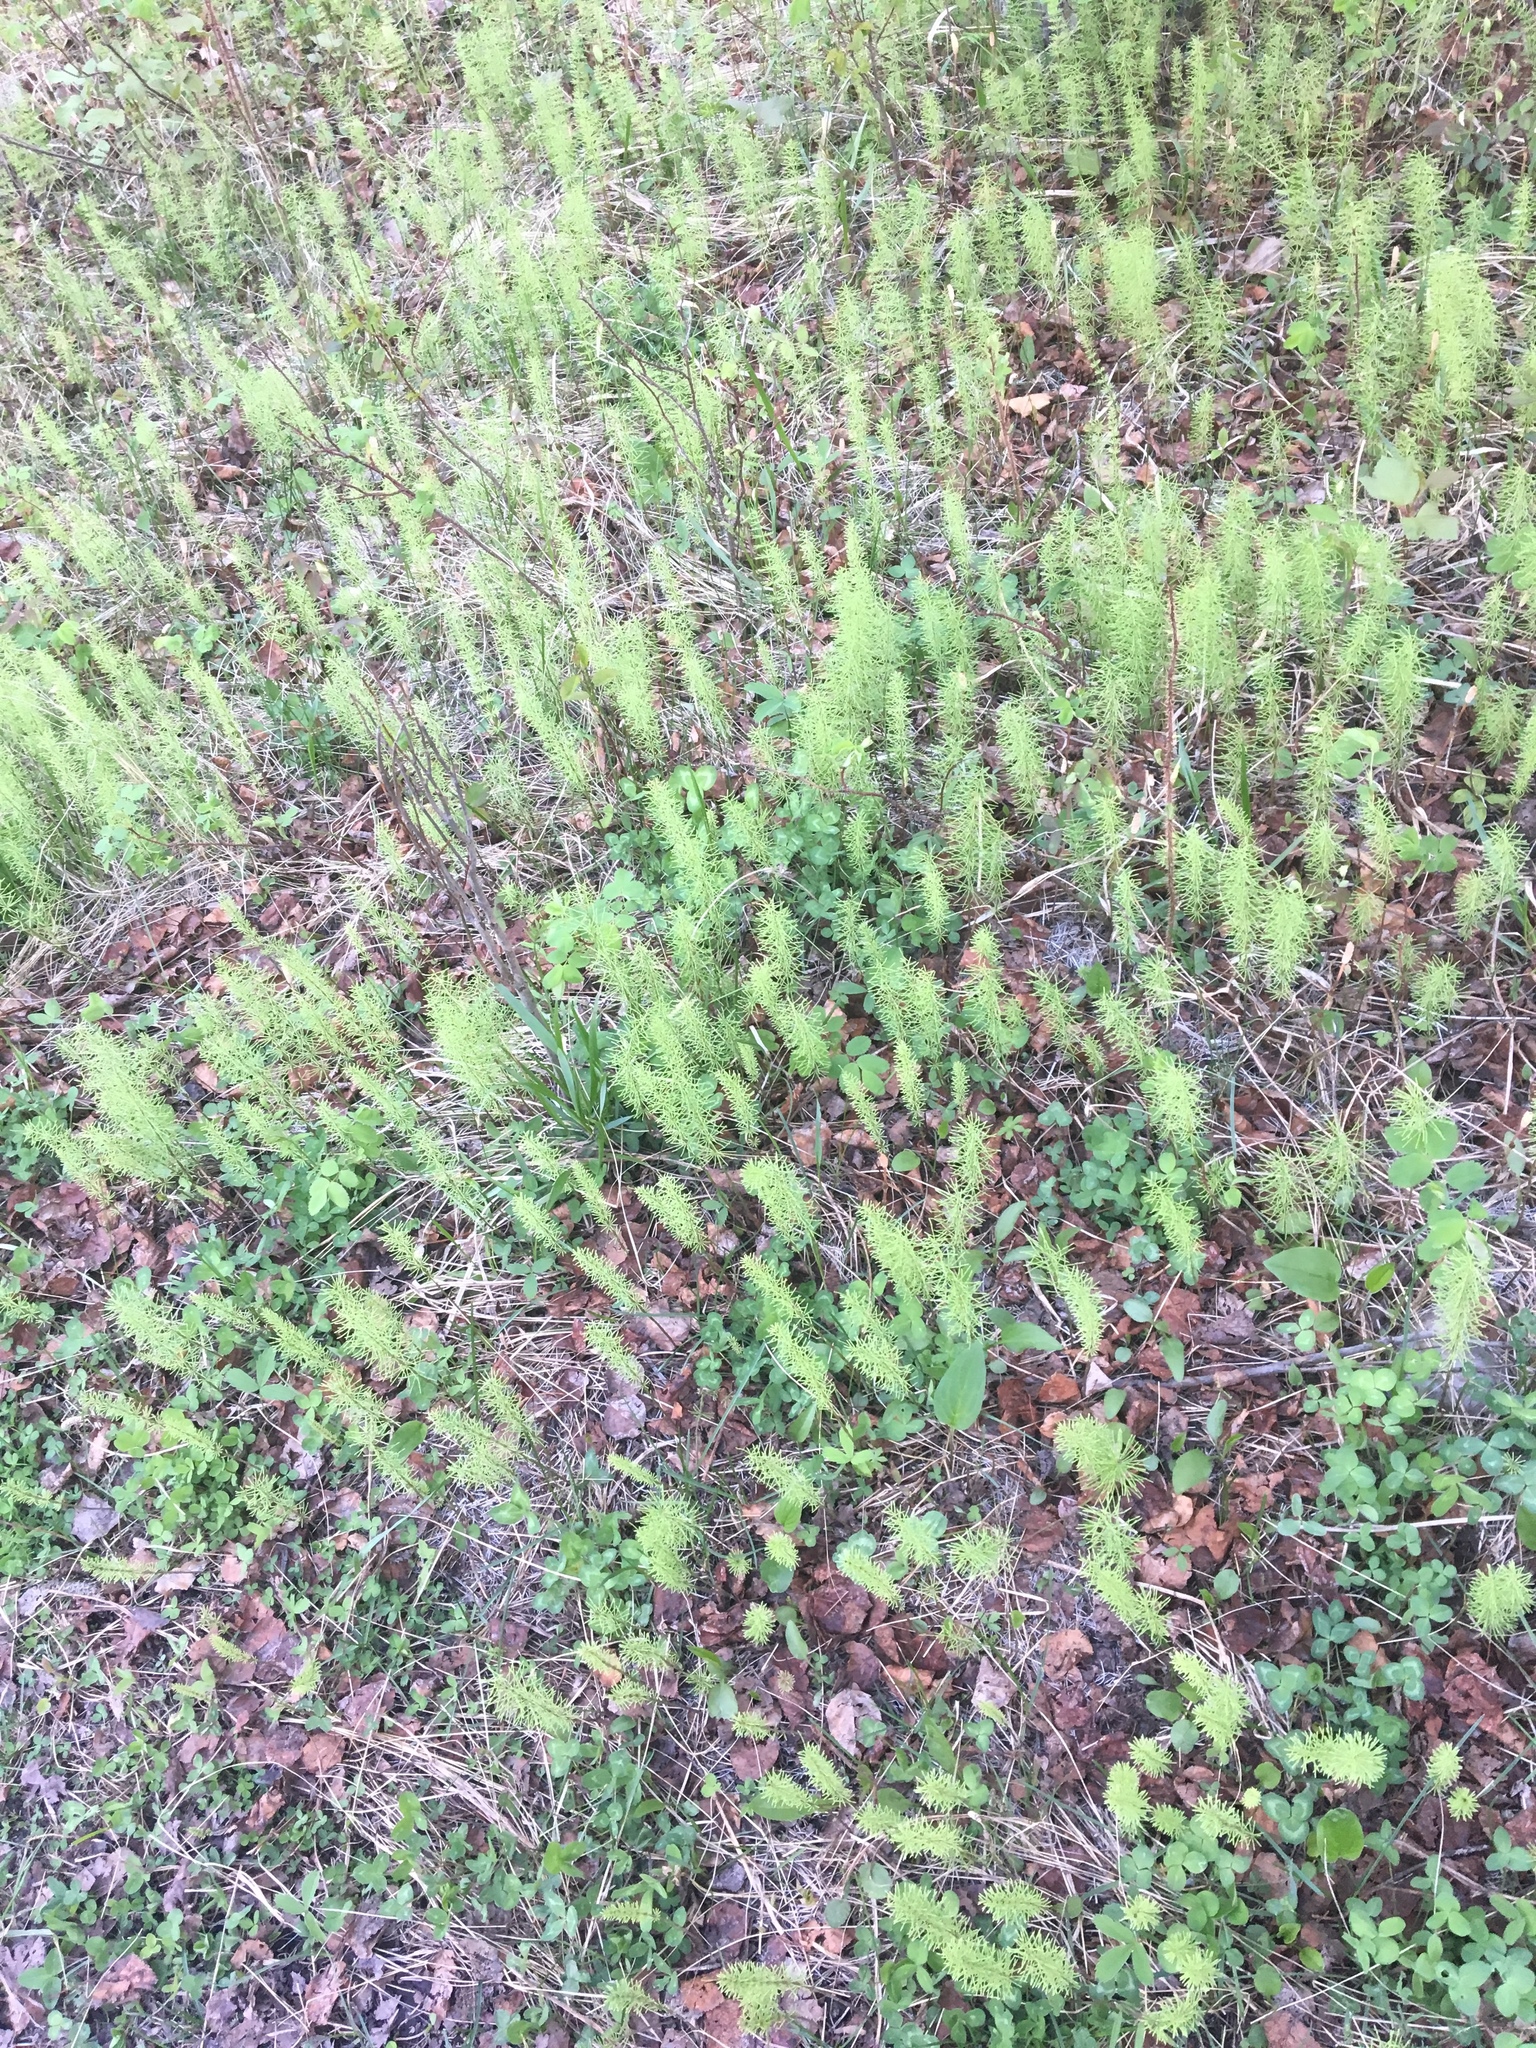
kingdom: Plantae
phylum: Tracheophyta
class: Polypodiopsida
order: Equisetales
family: Equisetaceae
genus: Equisetum
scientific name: Equisetum pratense
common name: Meadow horsetail
